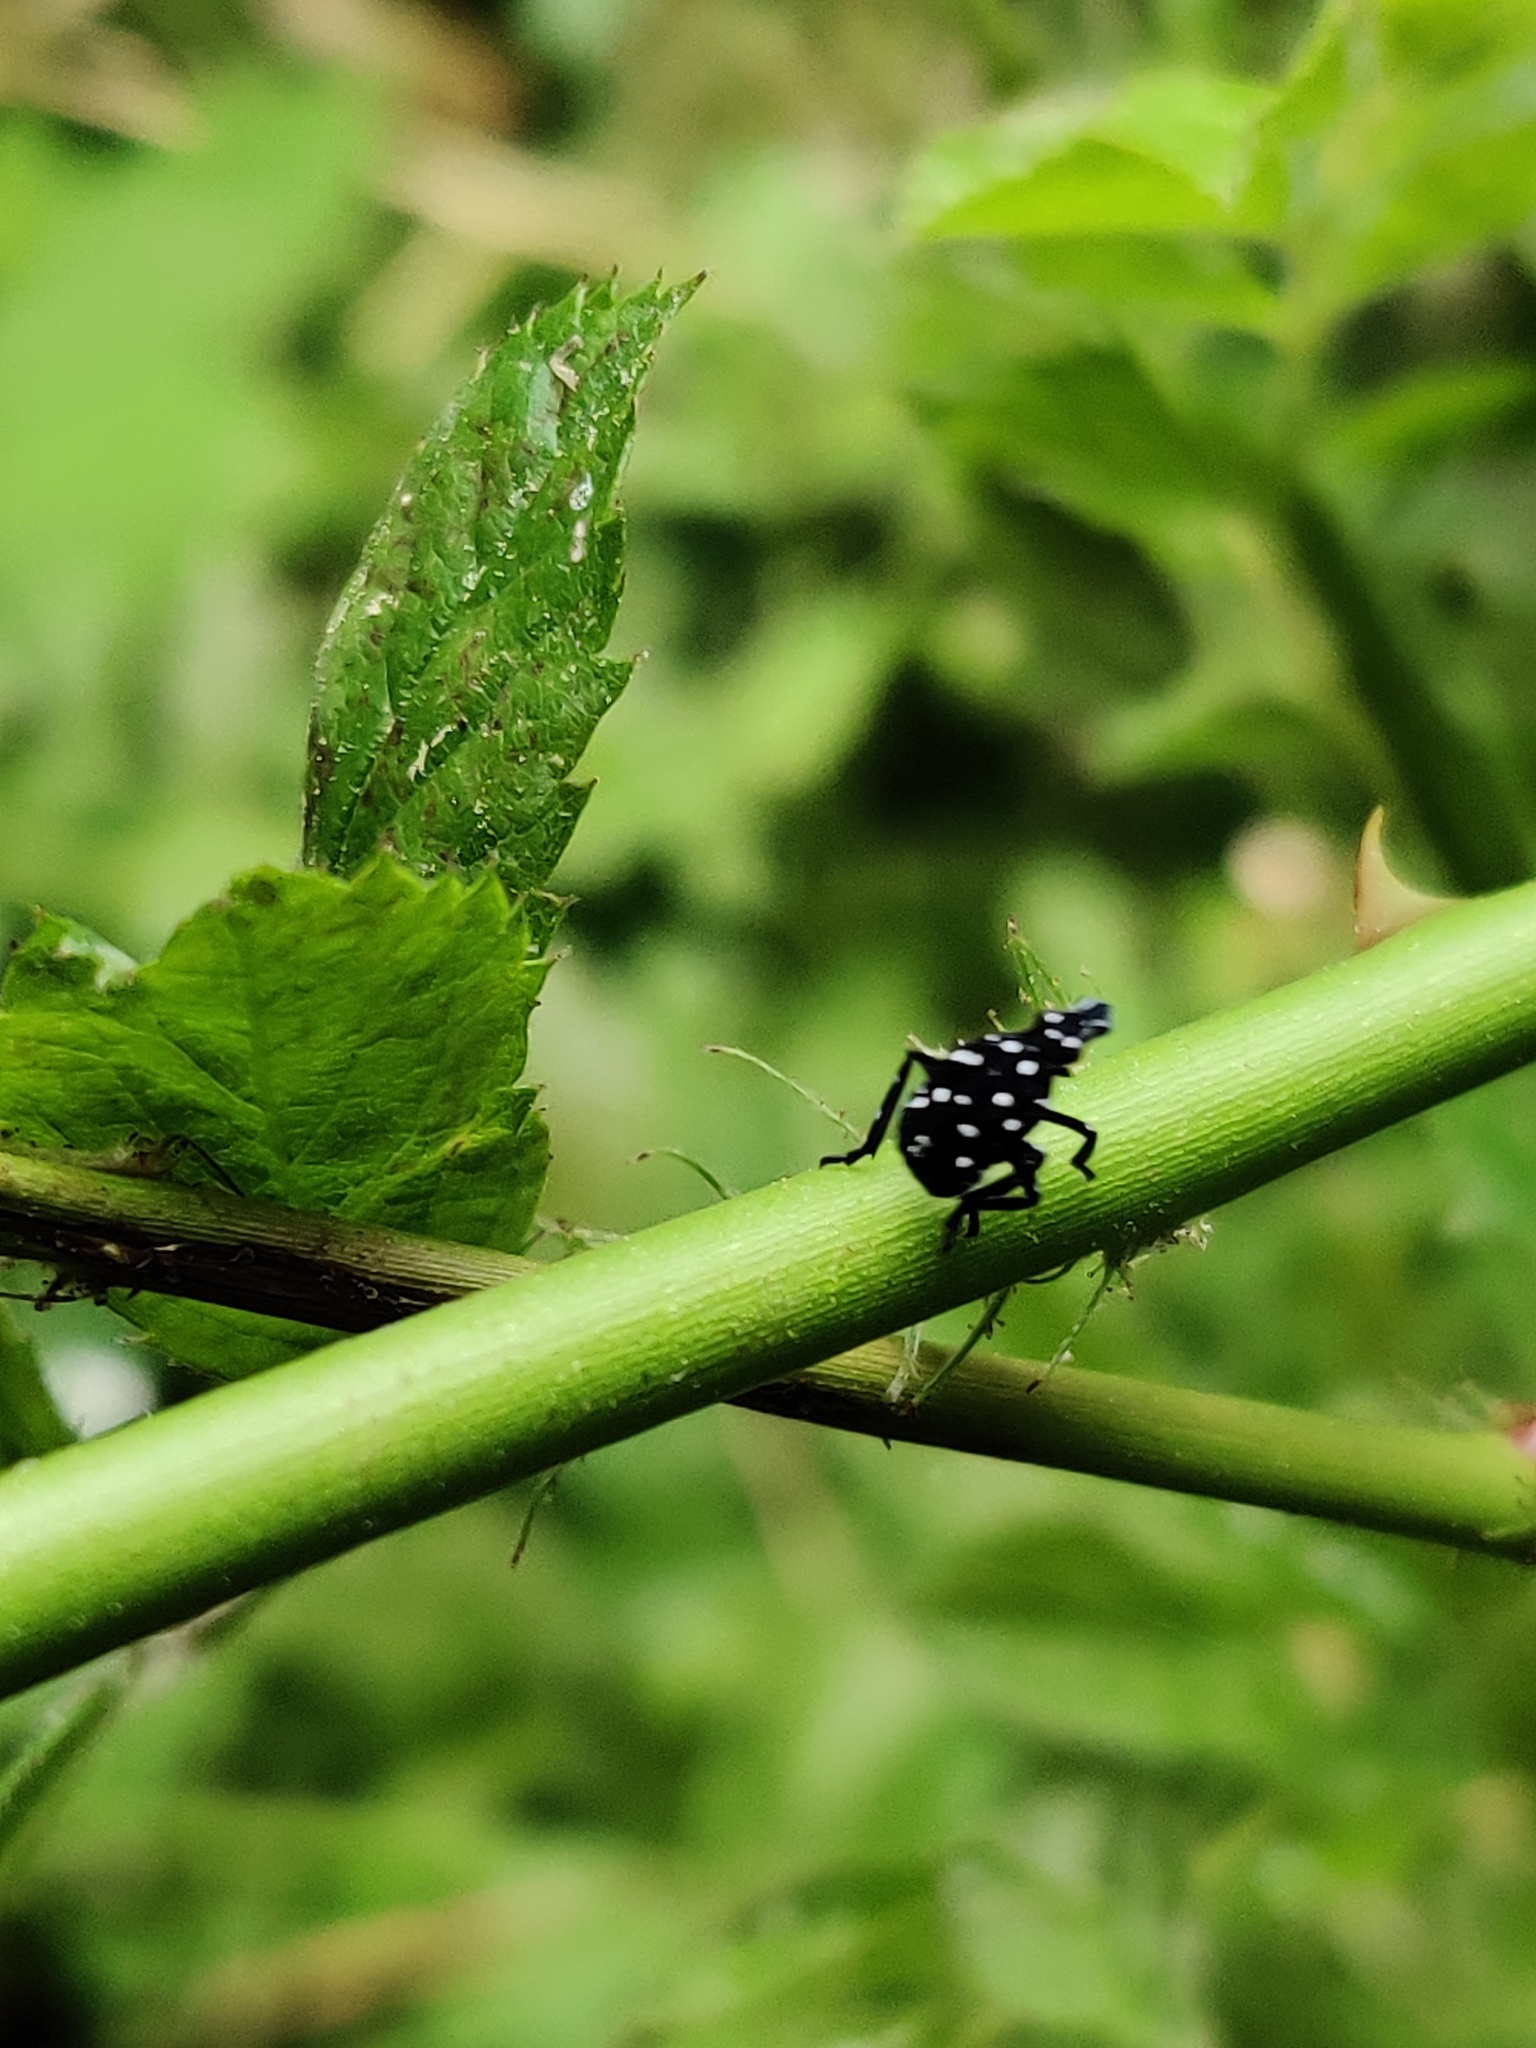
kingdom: Animalia
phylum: Arthropoda
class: Insecta
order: Hemiptera
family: Fulgoridae
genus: Lycorma
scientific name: Lycorma delicatula
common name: Spotted lanternfly
